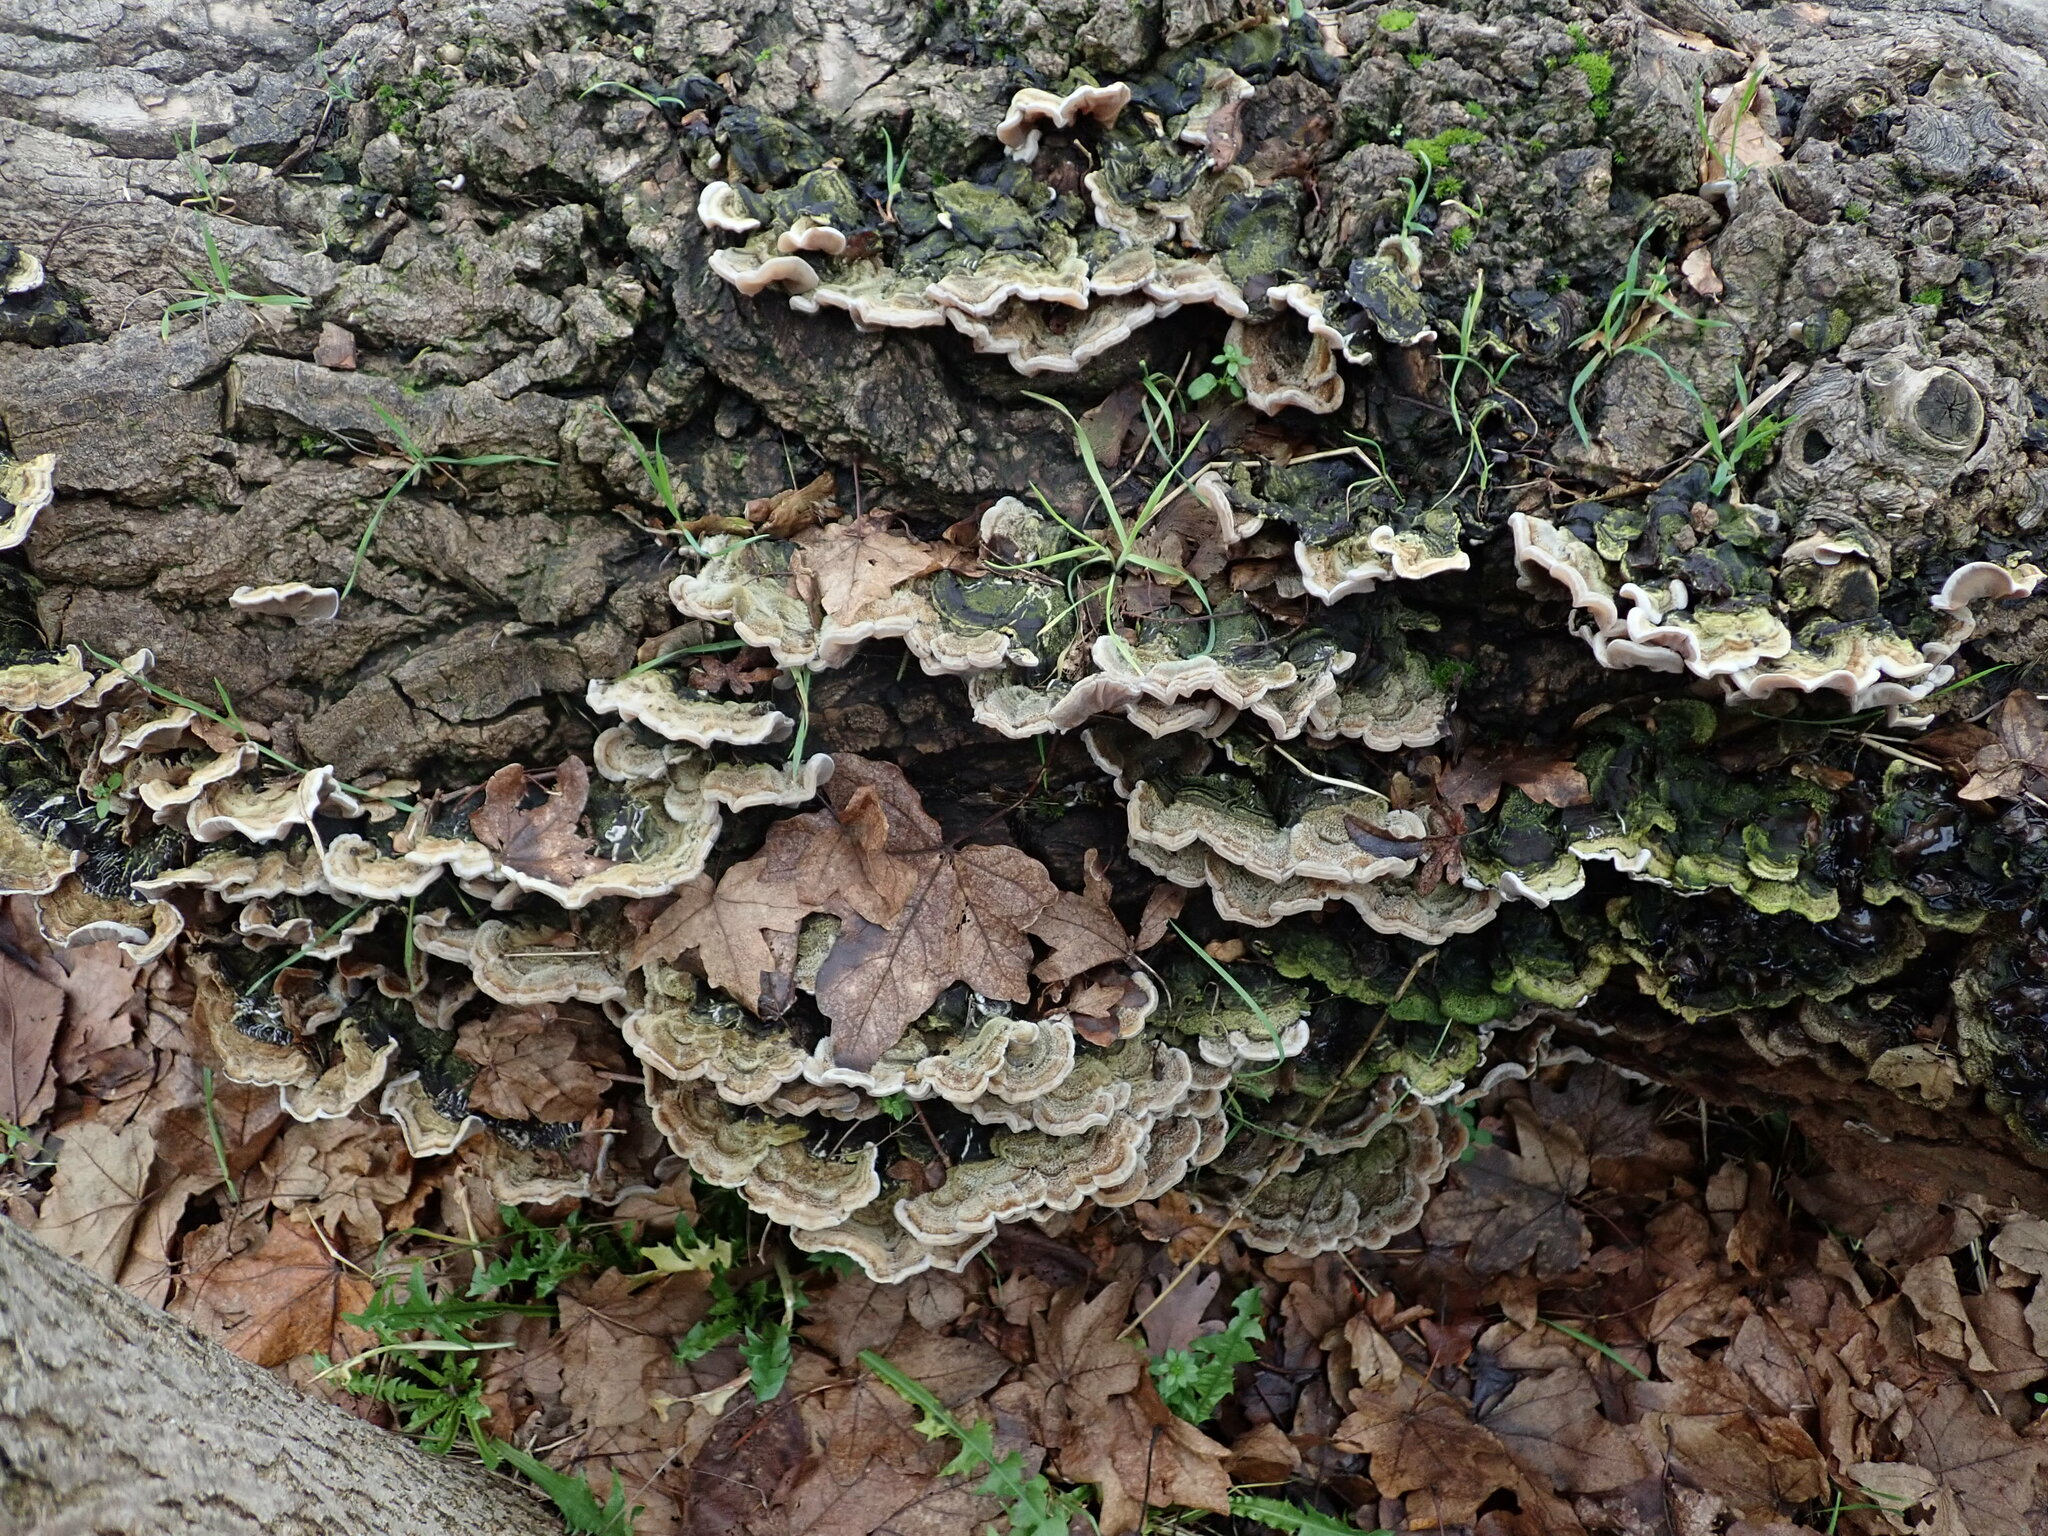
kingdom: Fungi
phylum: Basidiomycota
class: Agaricomycetes
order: Auriculariales
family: Auriculariaceae
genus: Auricularia
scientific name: Auricularia mesenterica
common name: Tripe fungus
